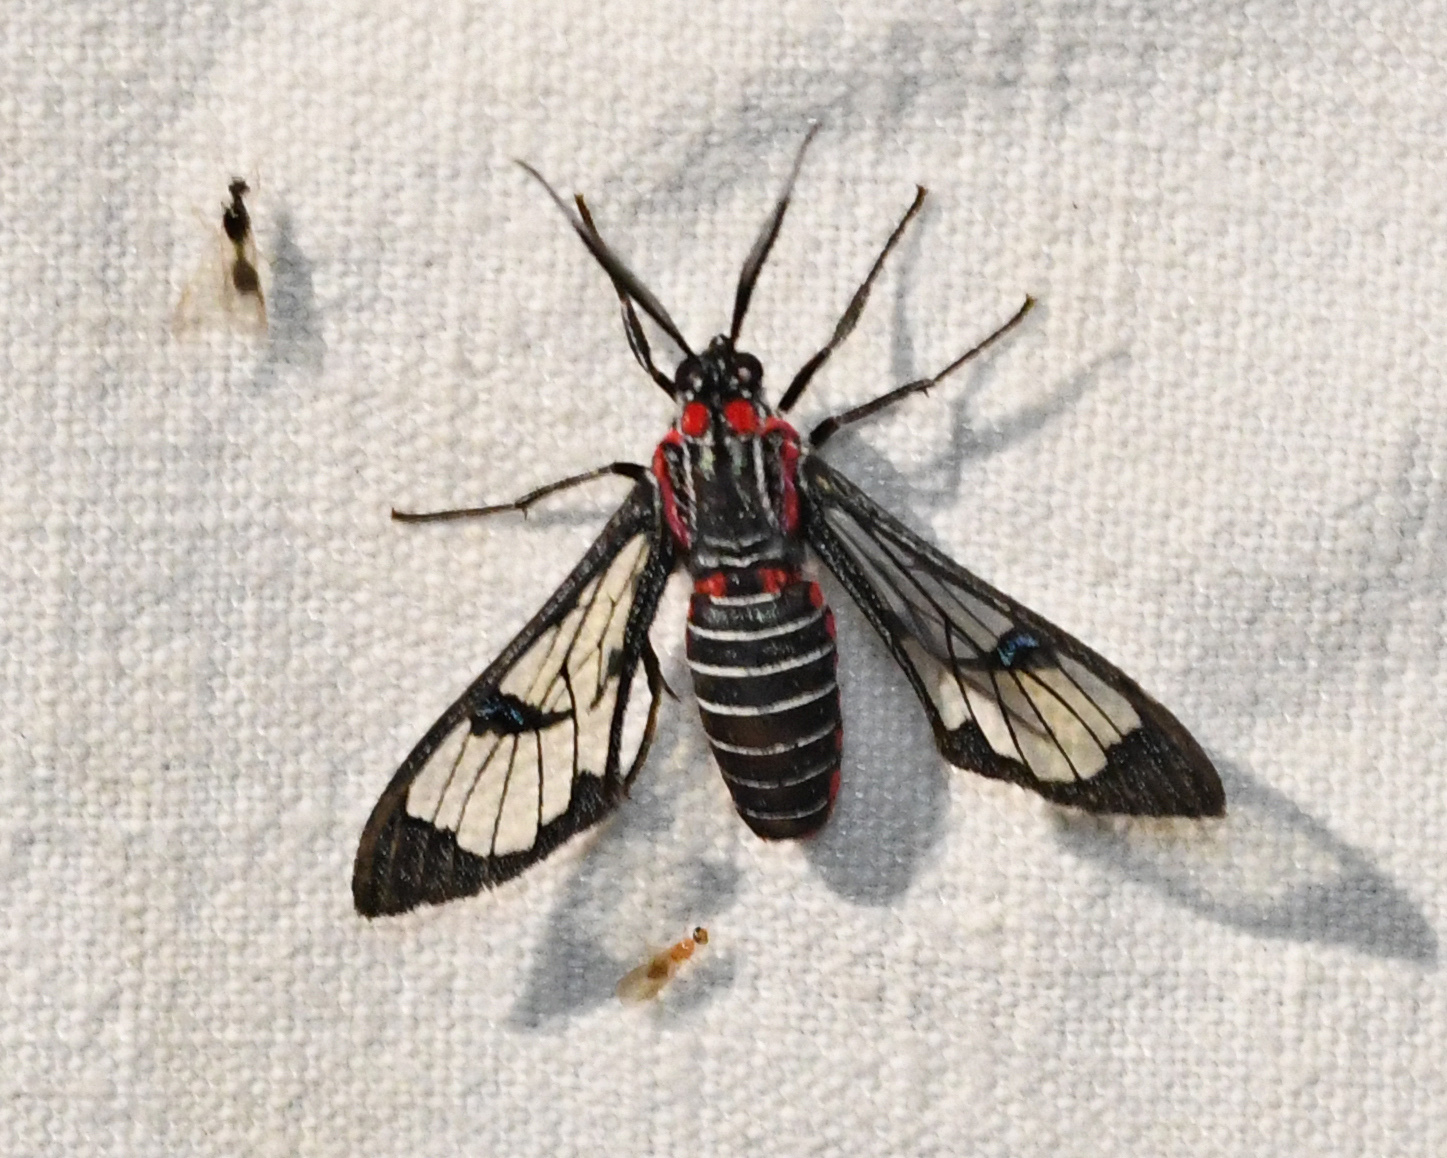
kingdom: Animalia
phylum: Arthropoda
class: Insecta
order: Lepidoptera
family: Erebidae
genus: Eunomia
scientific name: Eunomia colombina
